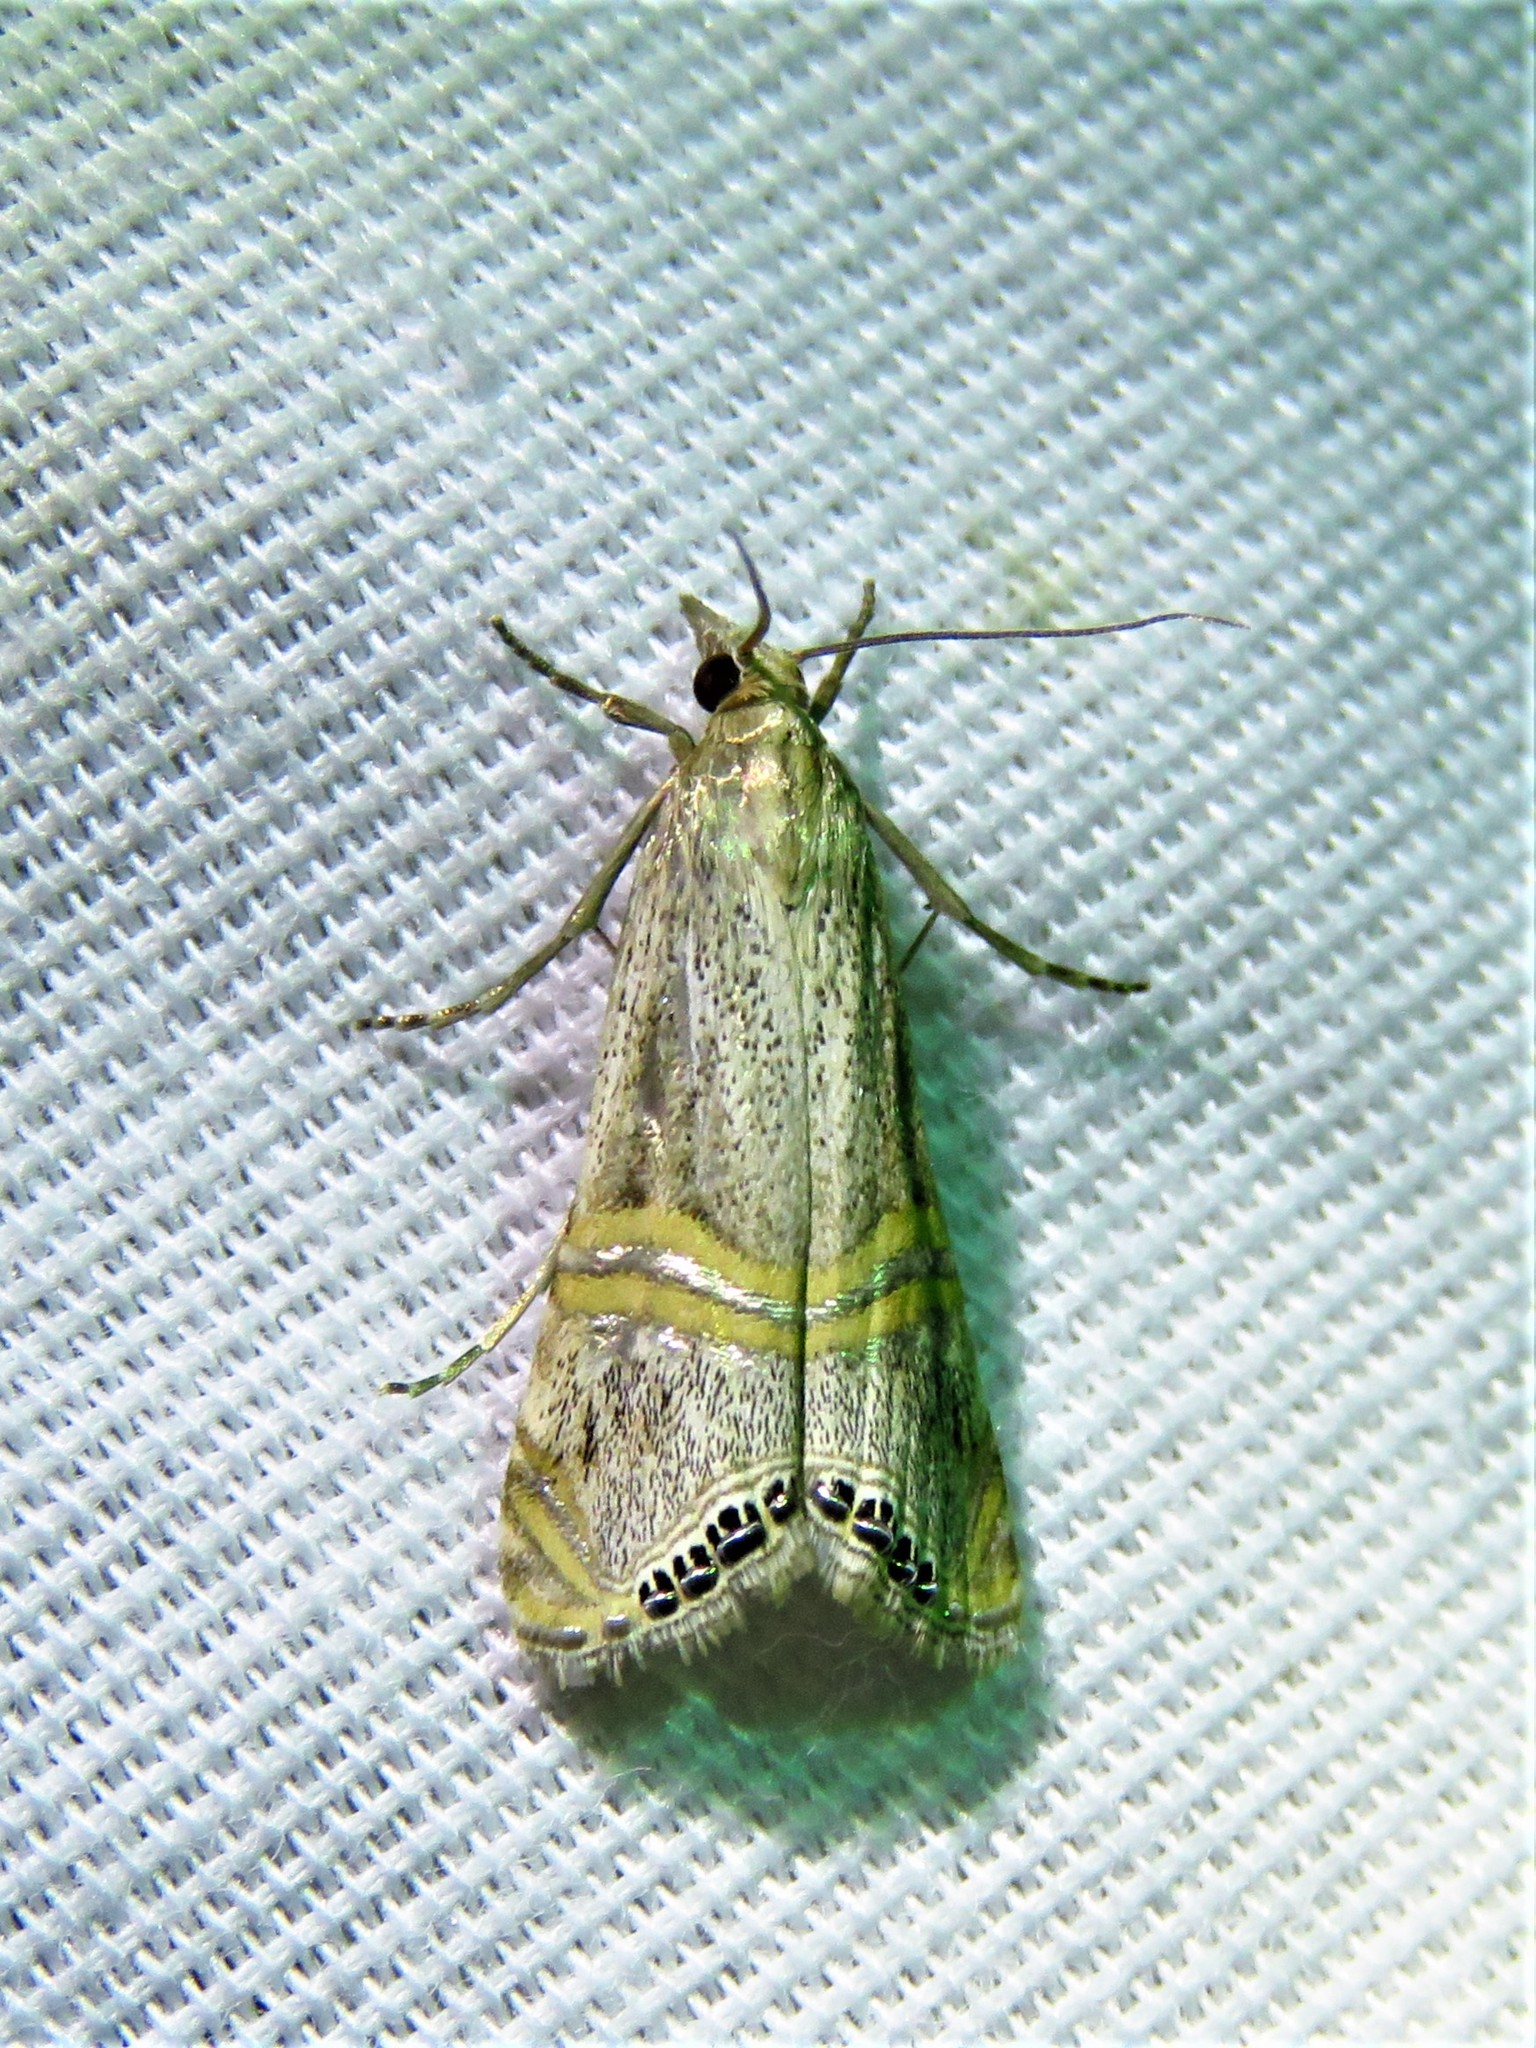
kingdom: Animalia
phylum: Arthropoda
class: Insecta
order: Lepidoptera
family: Crambidae
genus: Euchromius
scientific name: Euchromius ocellea
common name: Necklace veneer moth
